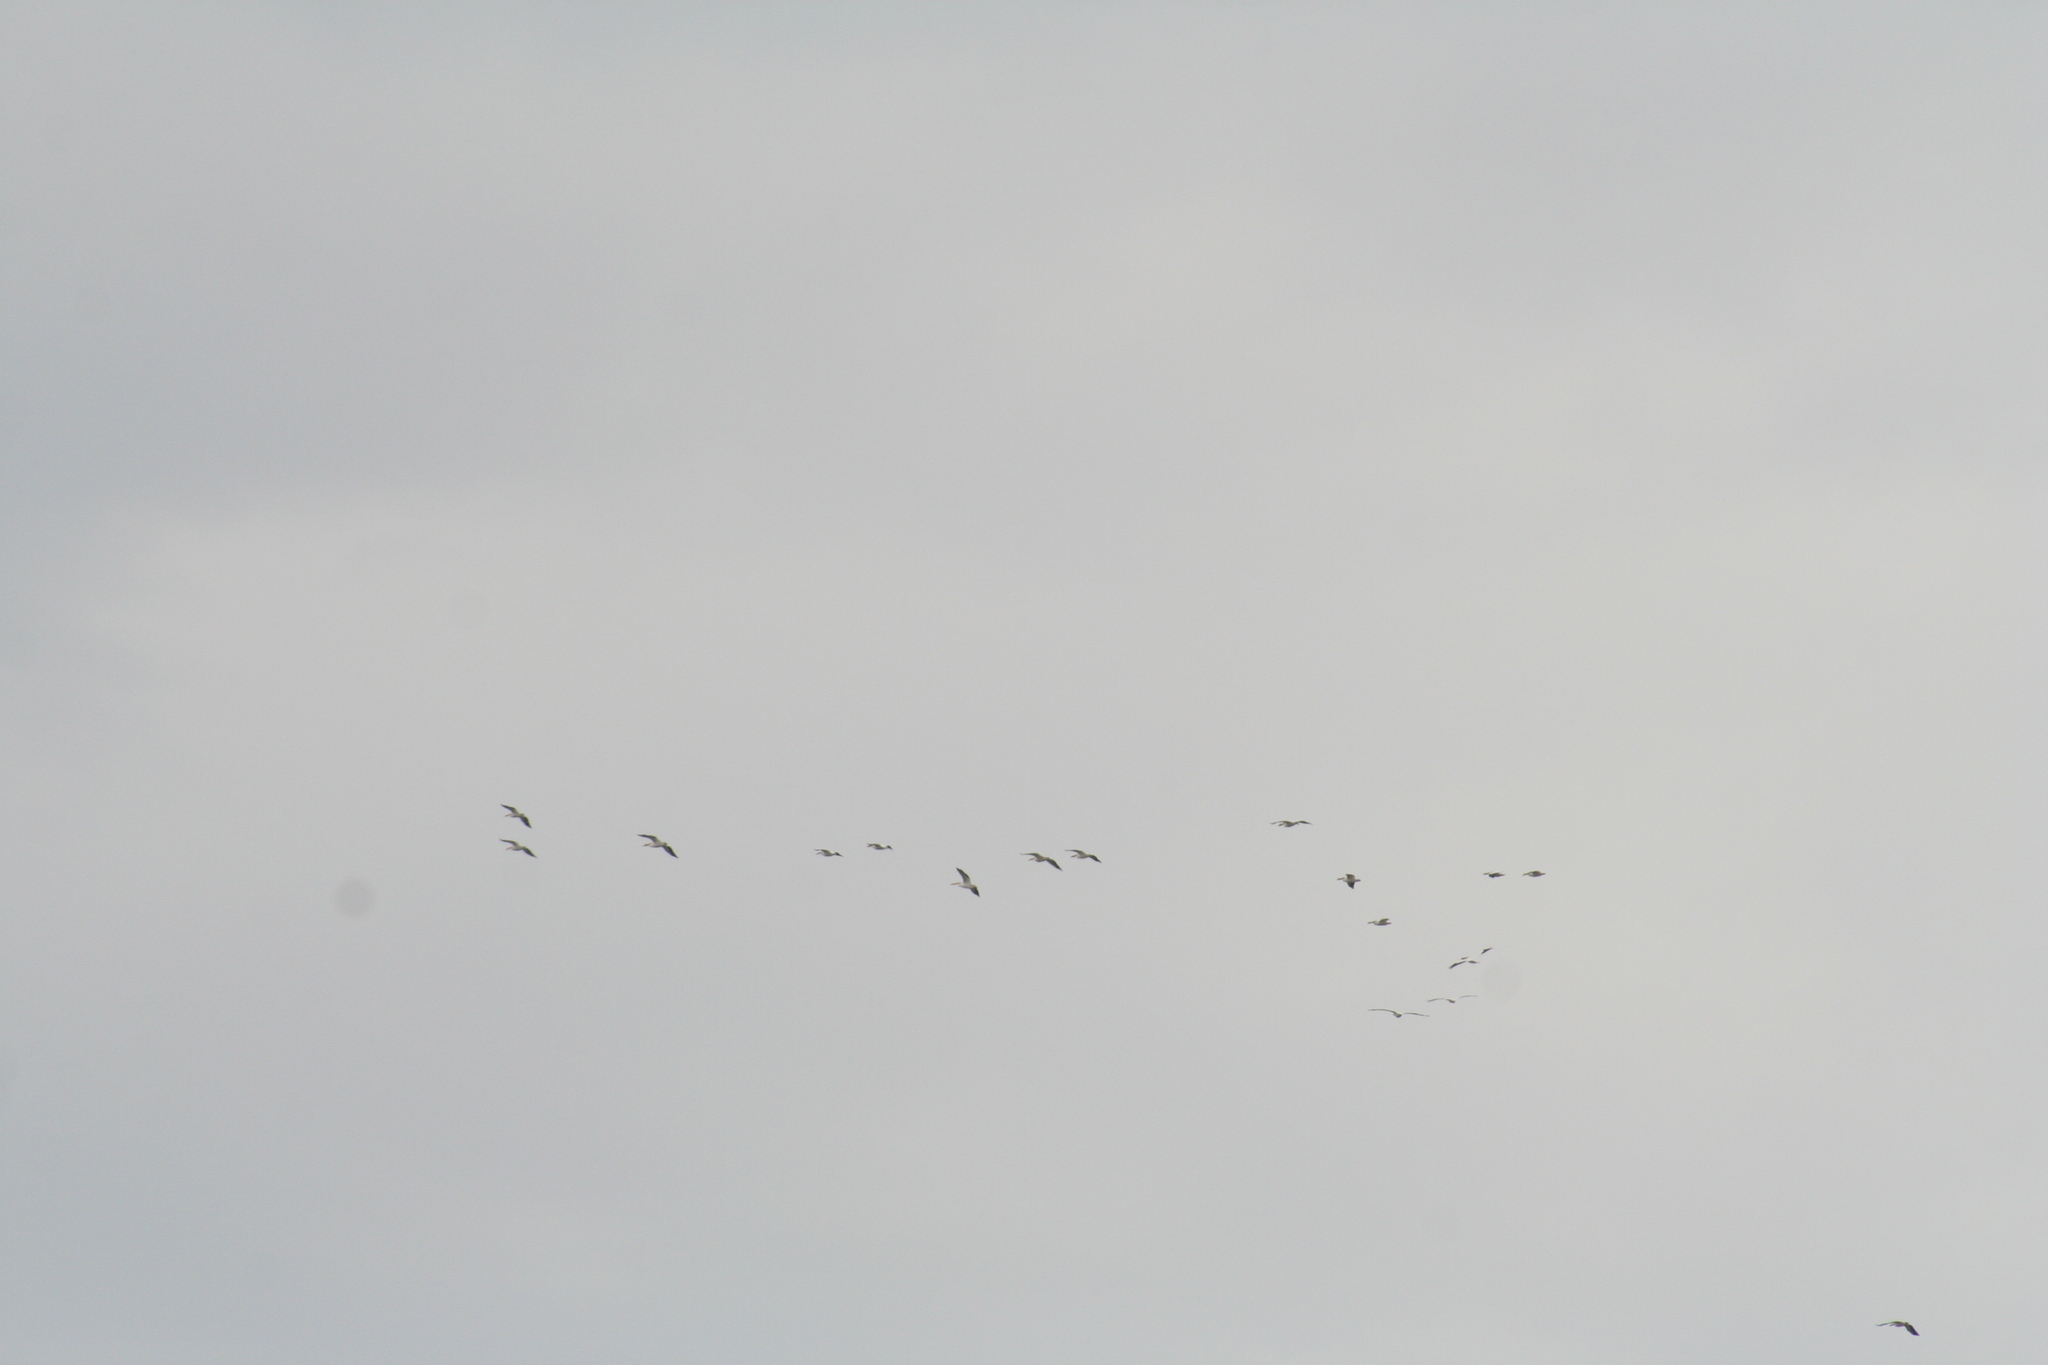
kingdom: Animalia
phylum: Chordata
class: Aves
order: Pelecaniformes
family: Pelecanidae
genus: Pelecanus
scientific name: Pelecanus erythrorhynchos
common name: American white pelican
